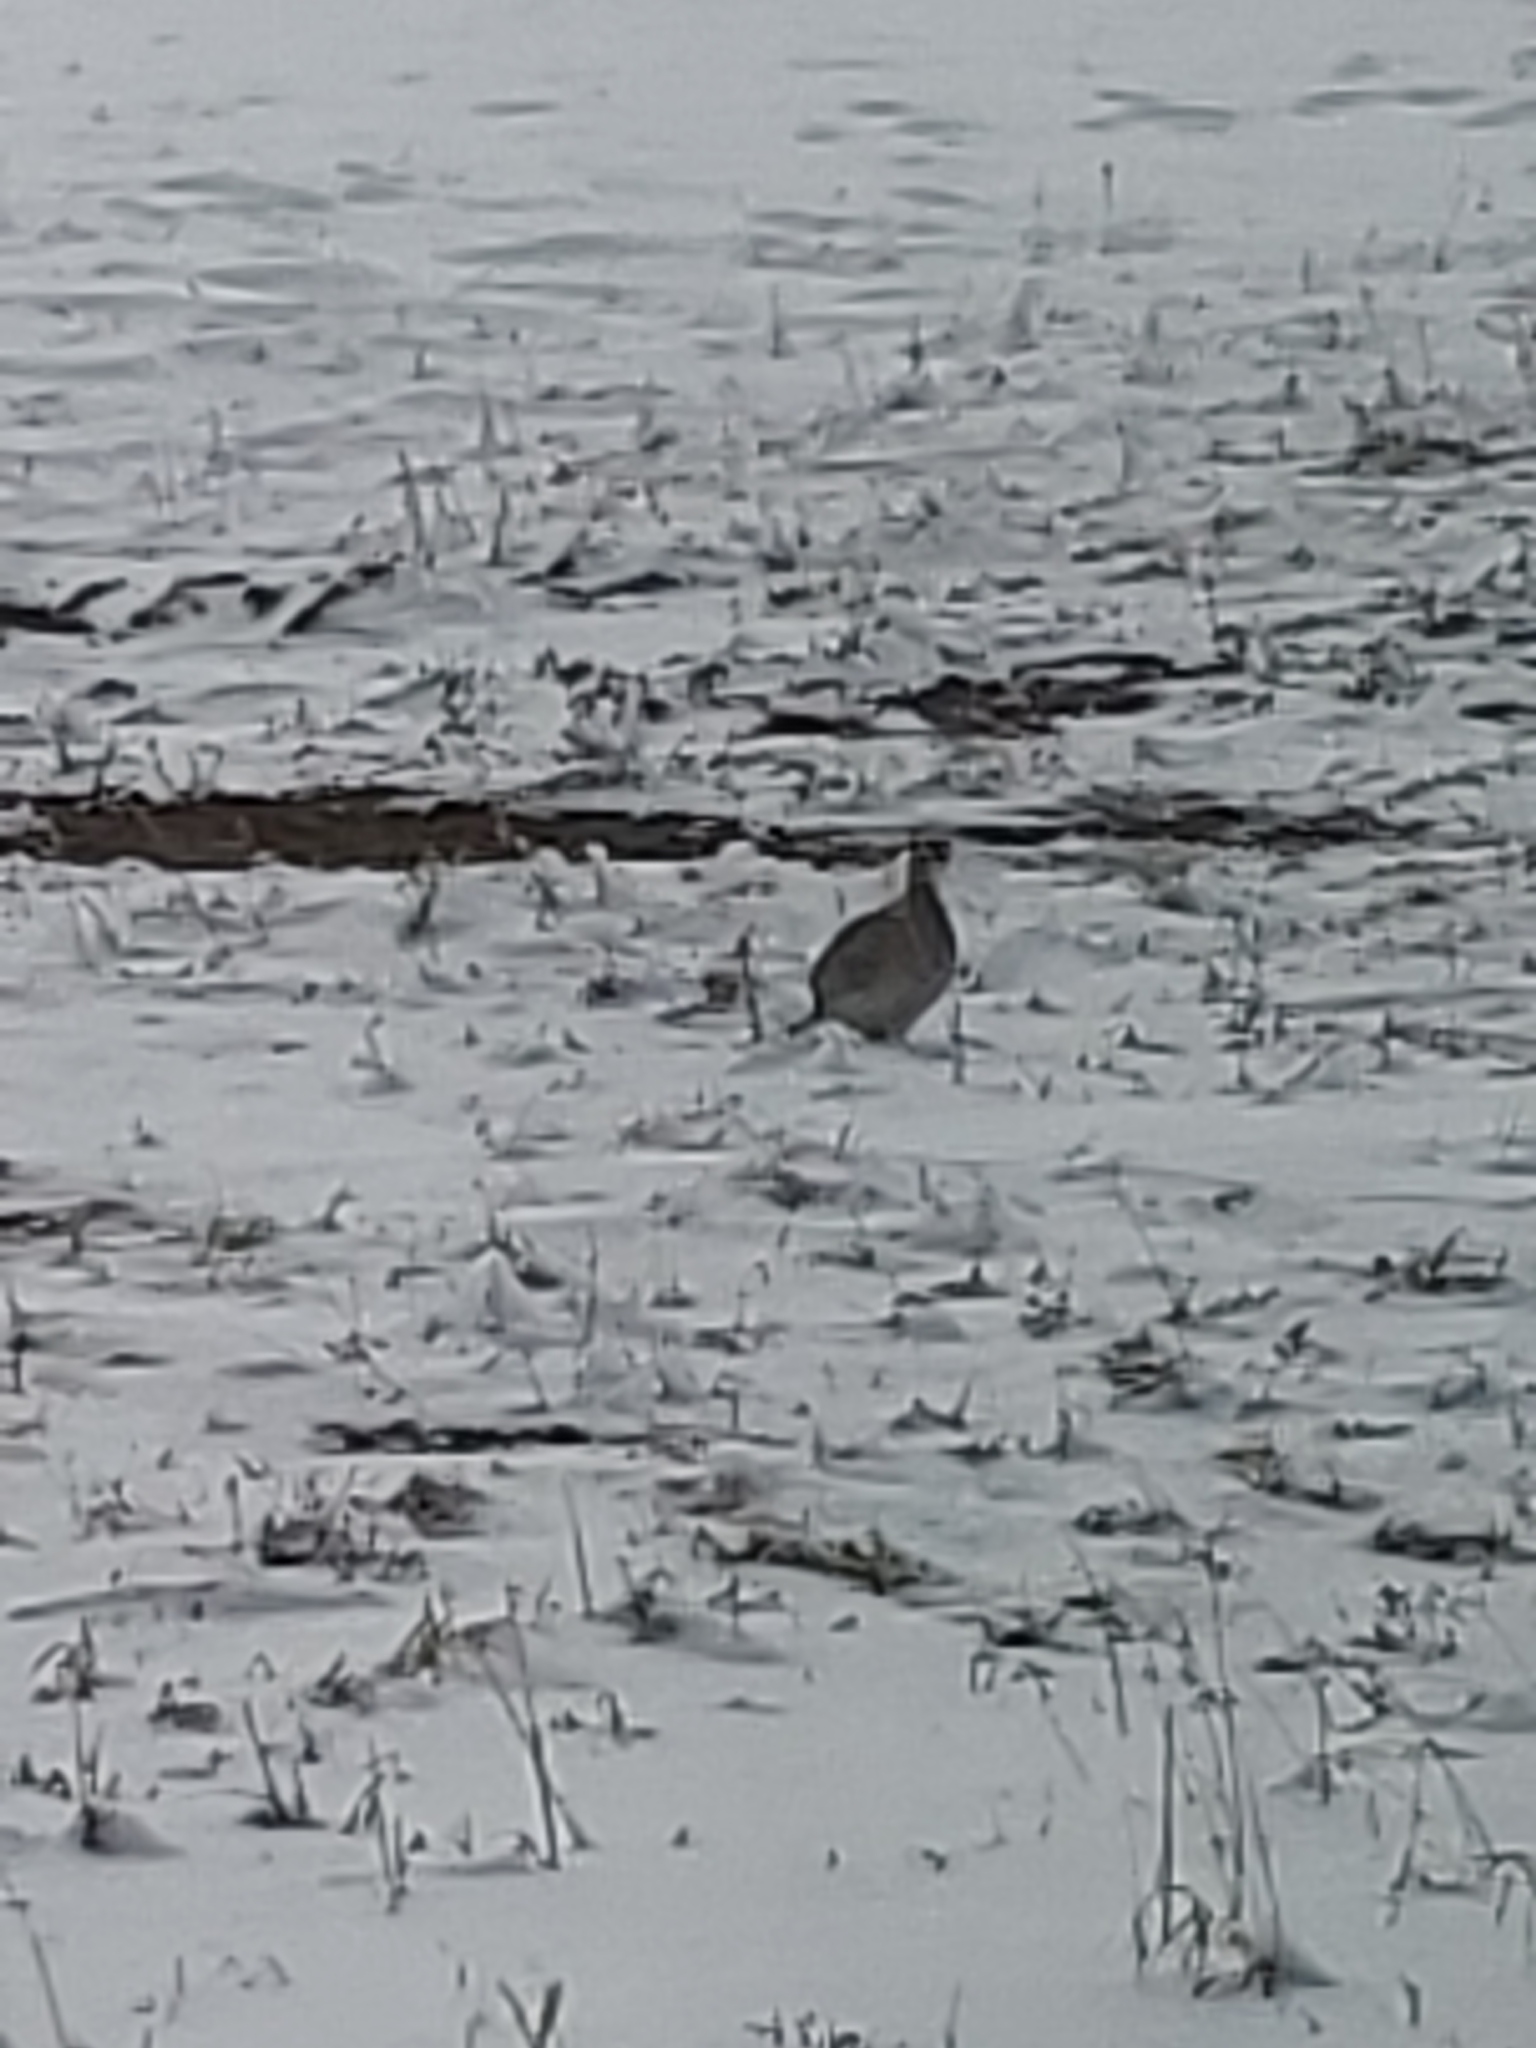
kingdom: Animalia
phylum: Chordata
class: Aves
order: Galliformes
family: Phasianidae
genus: Tympanuchus
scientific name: Tympanuchus phasianellus
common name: Sharp-tailed grouse
